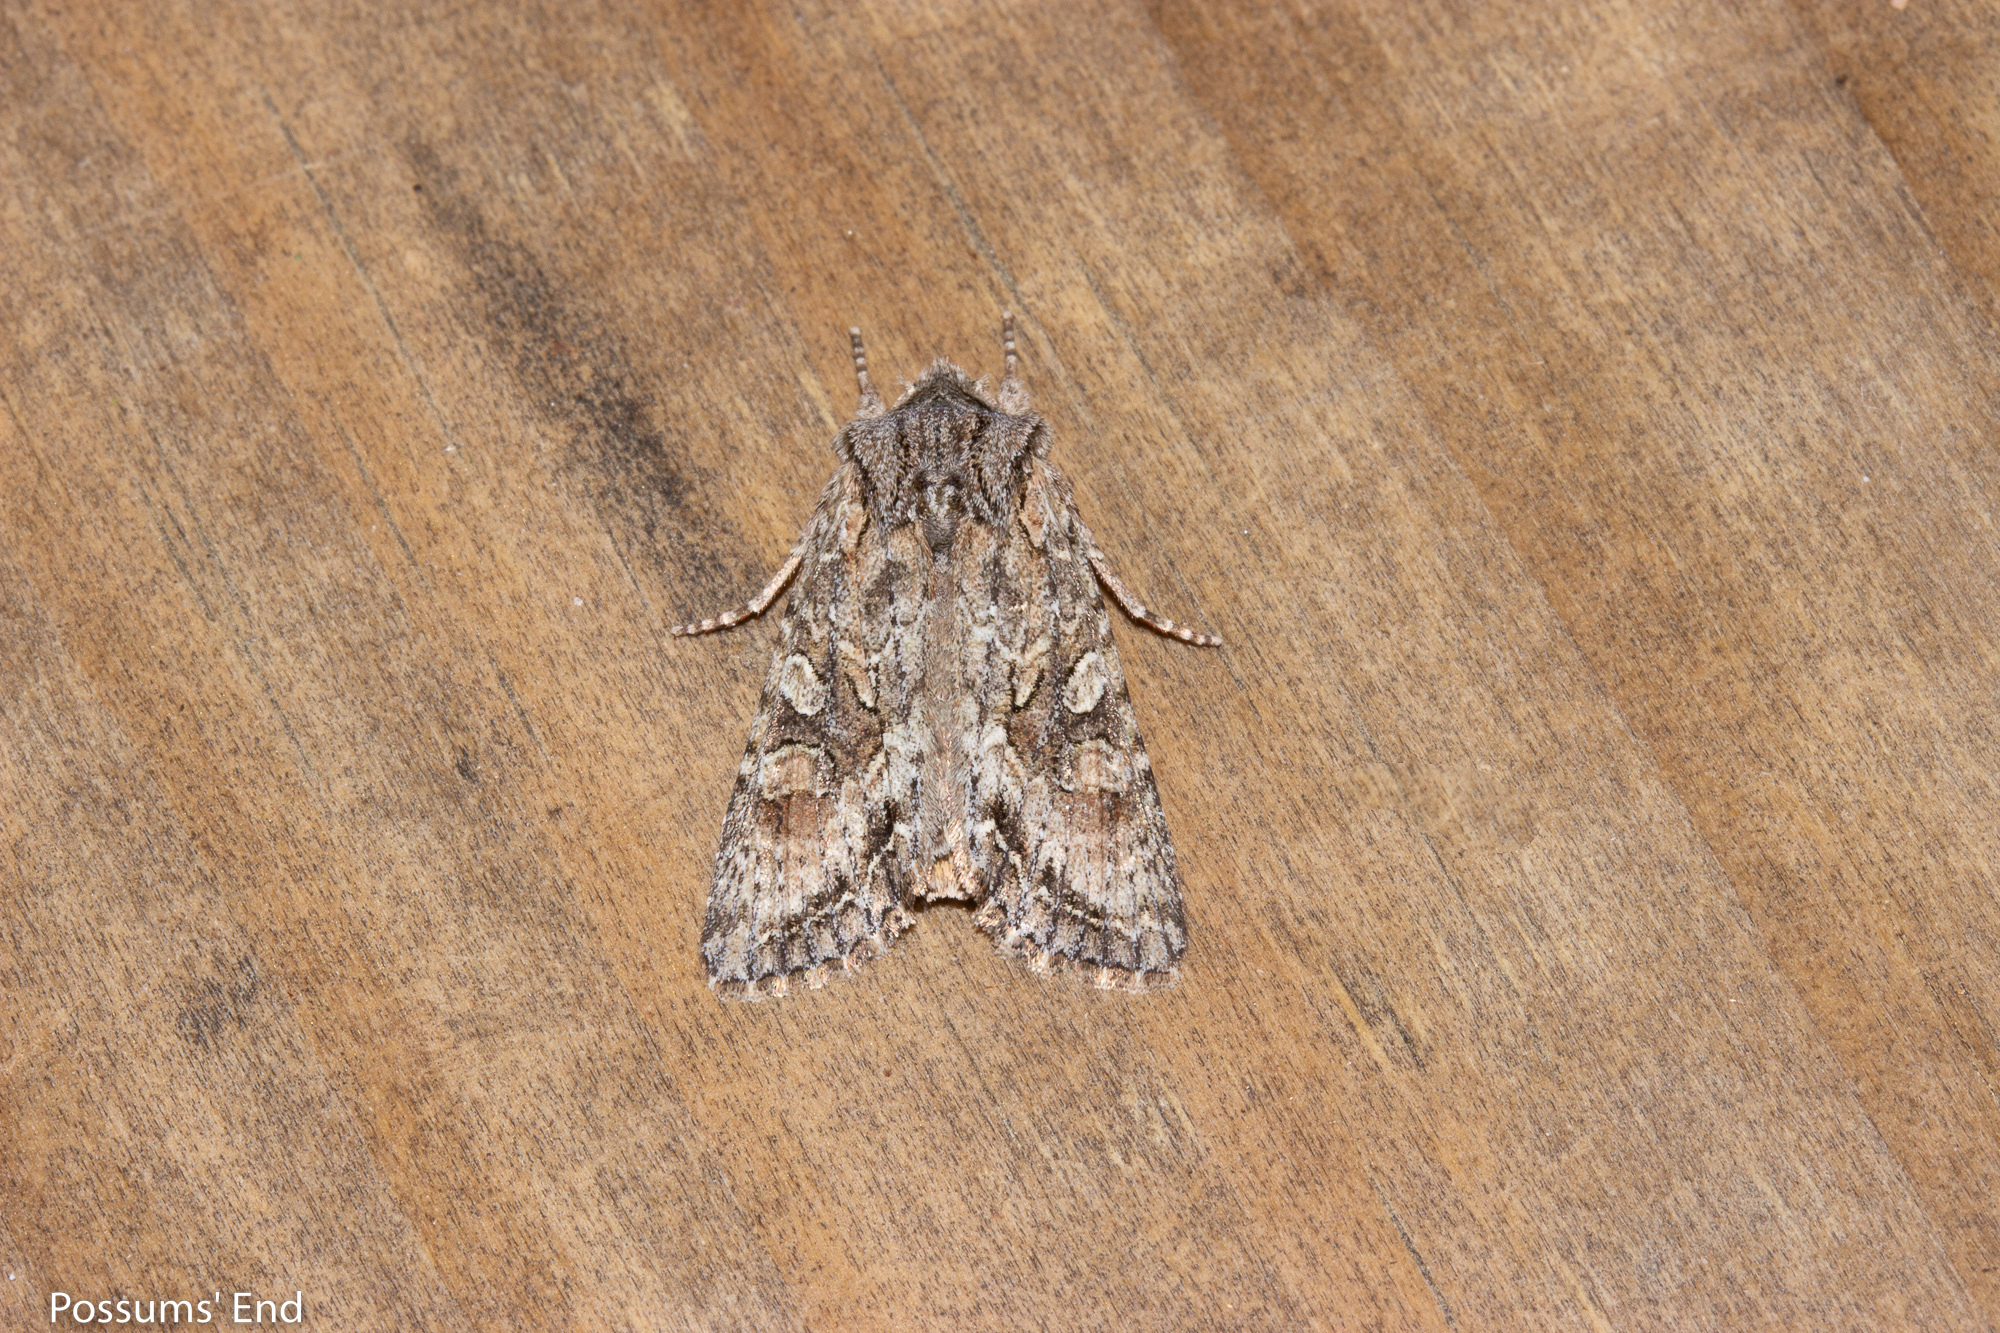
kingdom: Animalia
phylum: Arthropoda
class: Insecta
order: Lepidoptera
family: Noctuidae
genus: Ichneutica
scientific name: Ichneutica mutans
